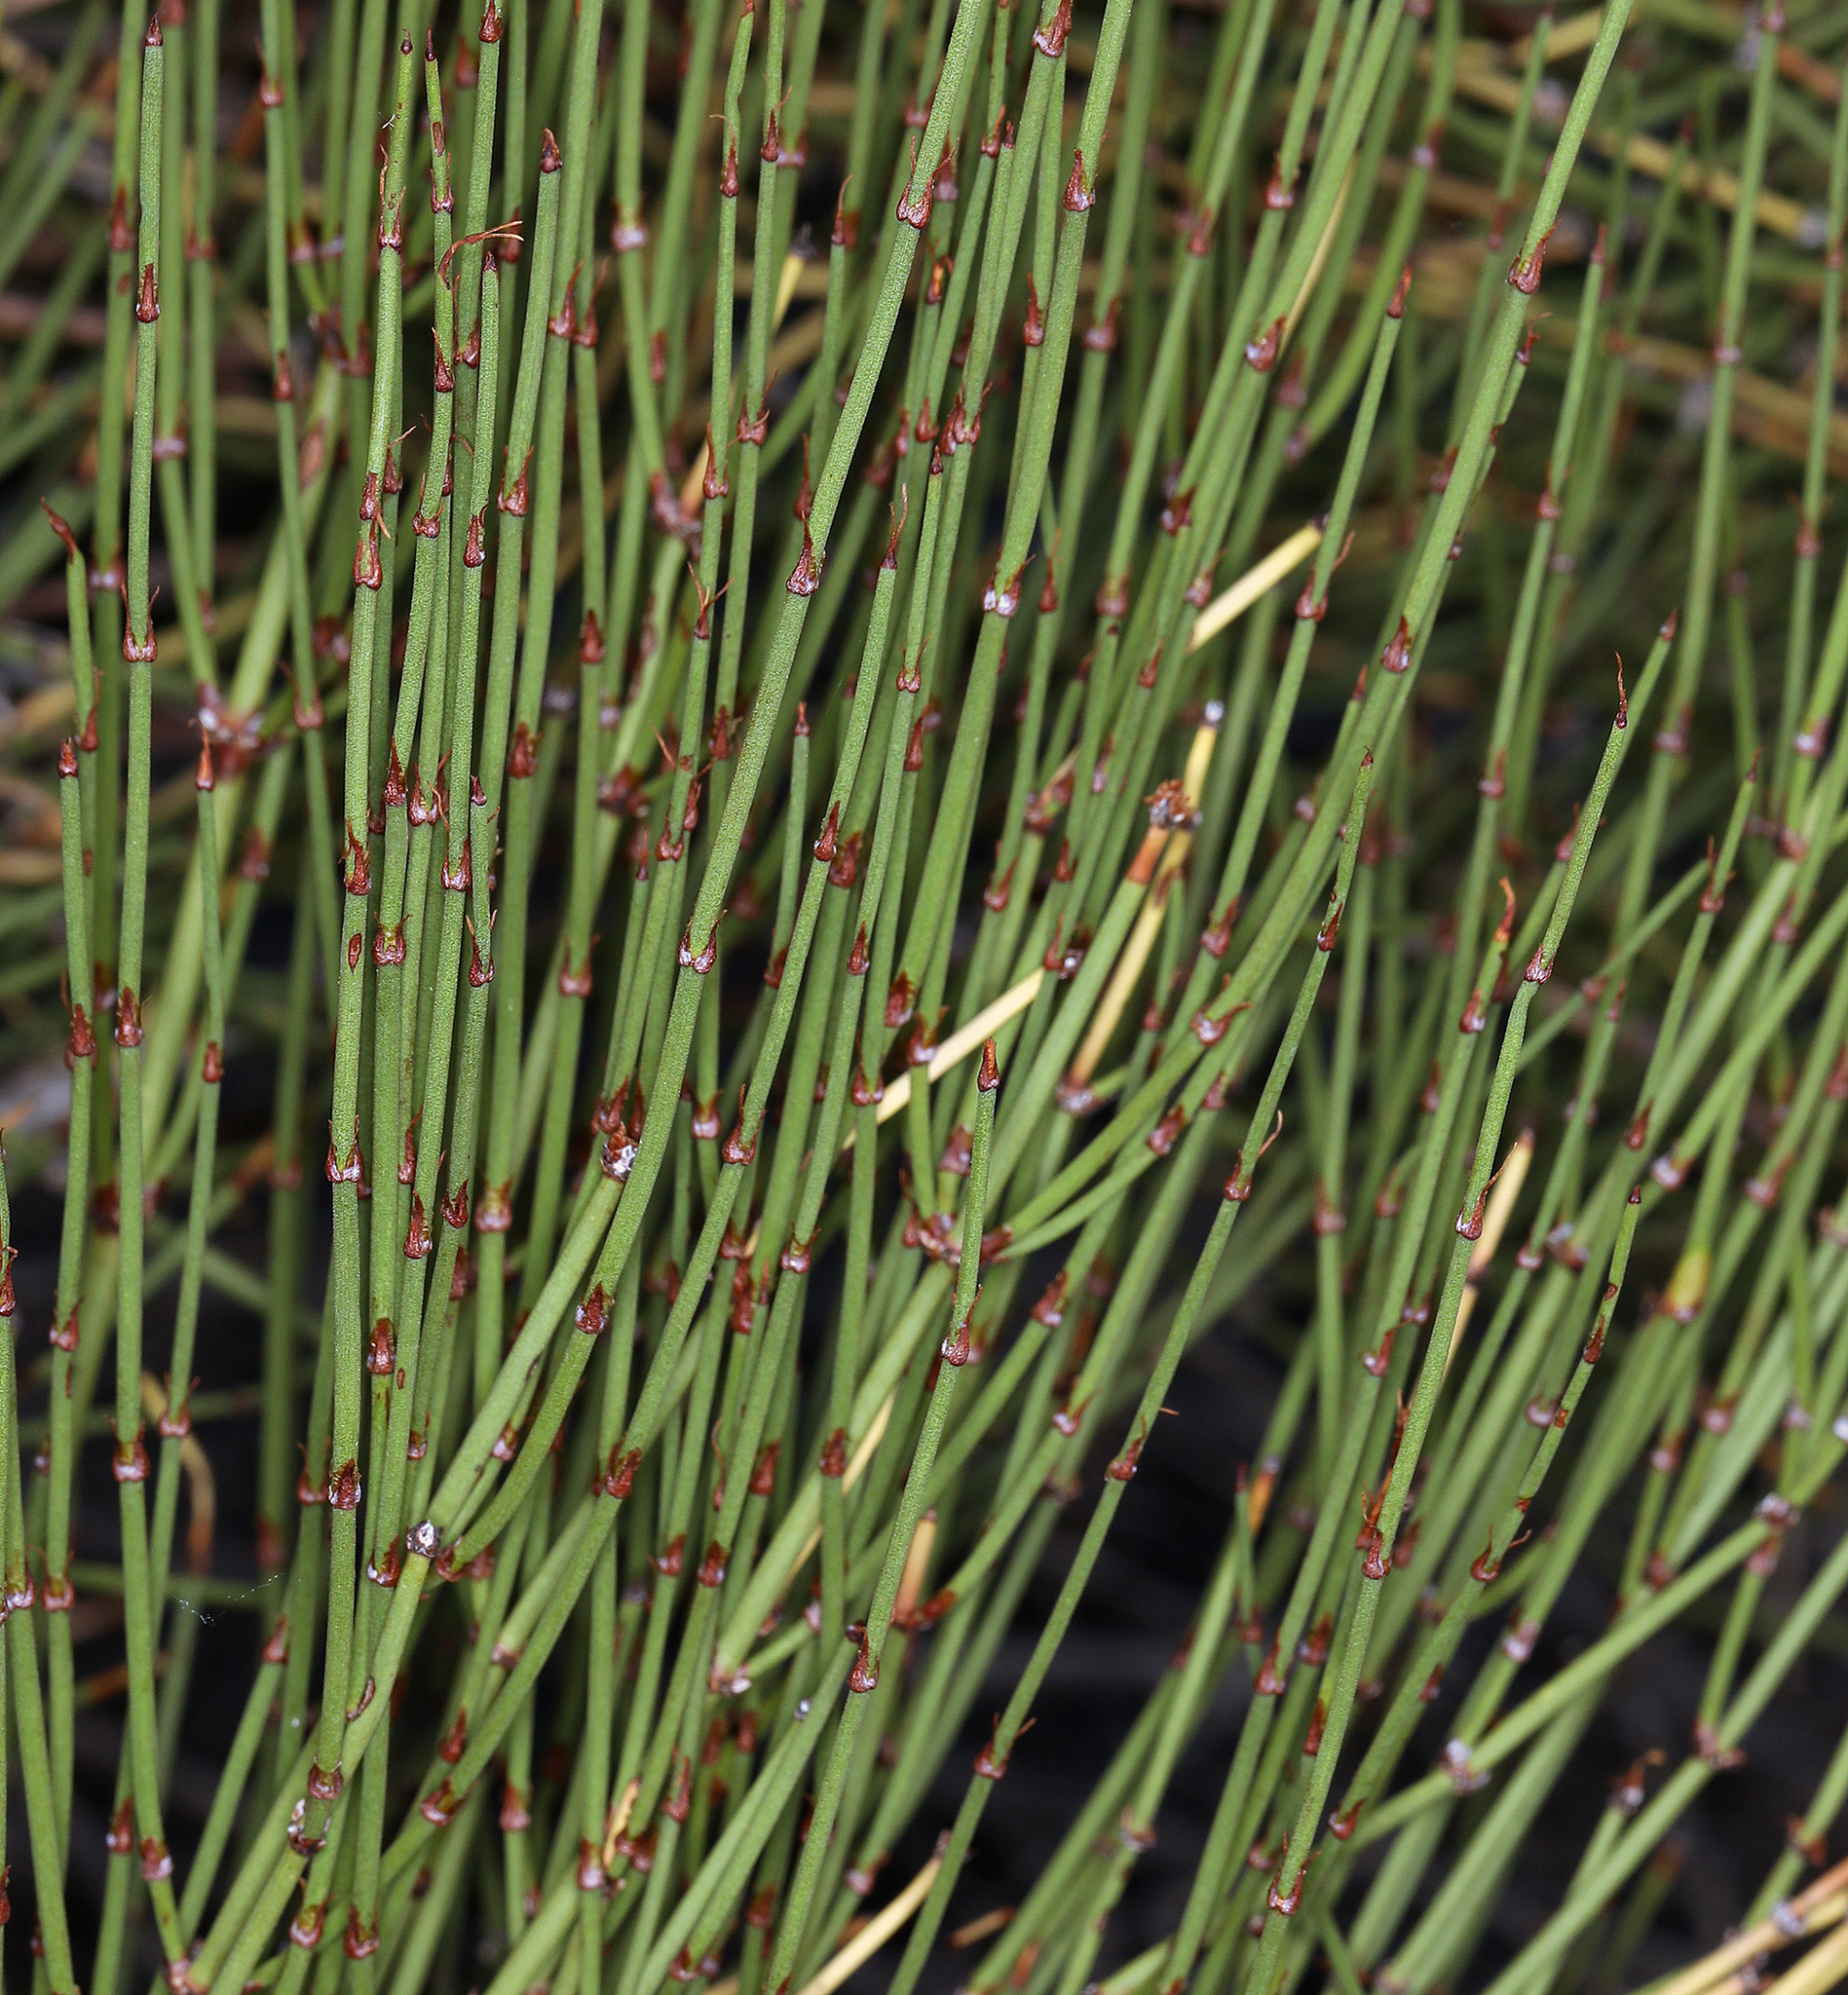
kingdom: Plantae
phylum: Tracheophyta
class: Gnetopsida
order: Ephedrales
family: Ephedraceae
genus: Ephedra
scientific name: Ephedra viridis
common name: Green ephedra
